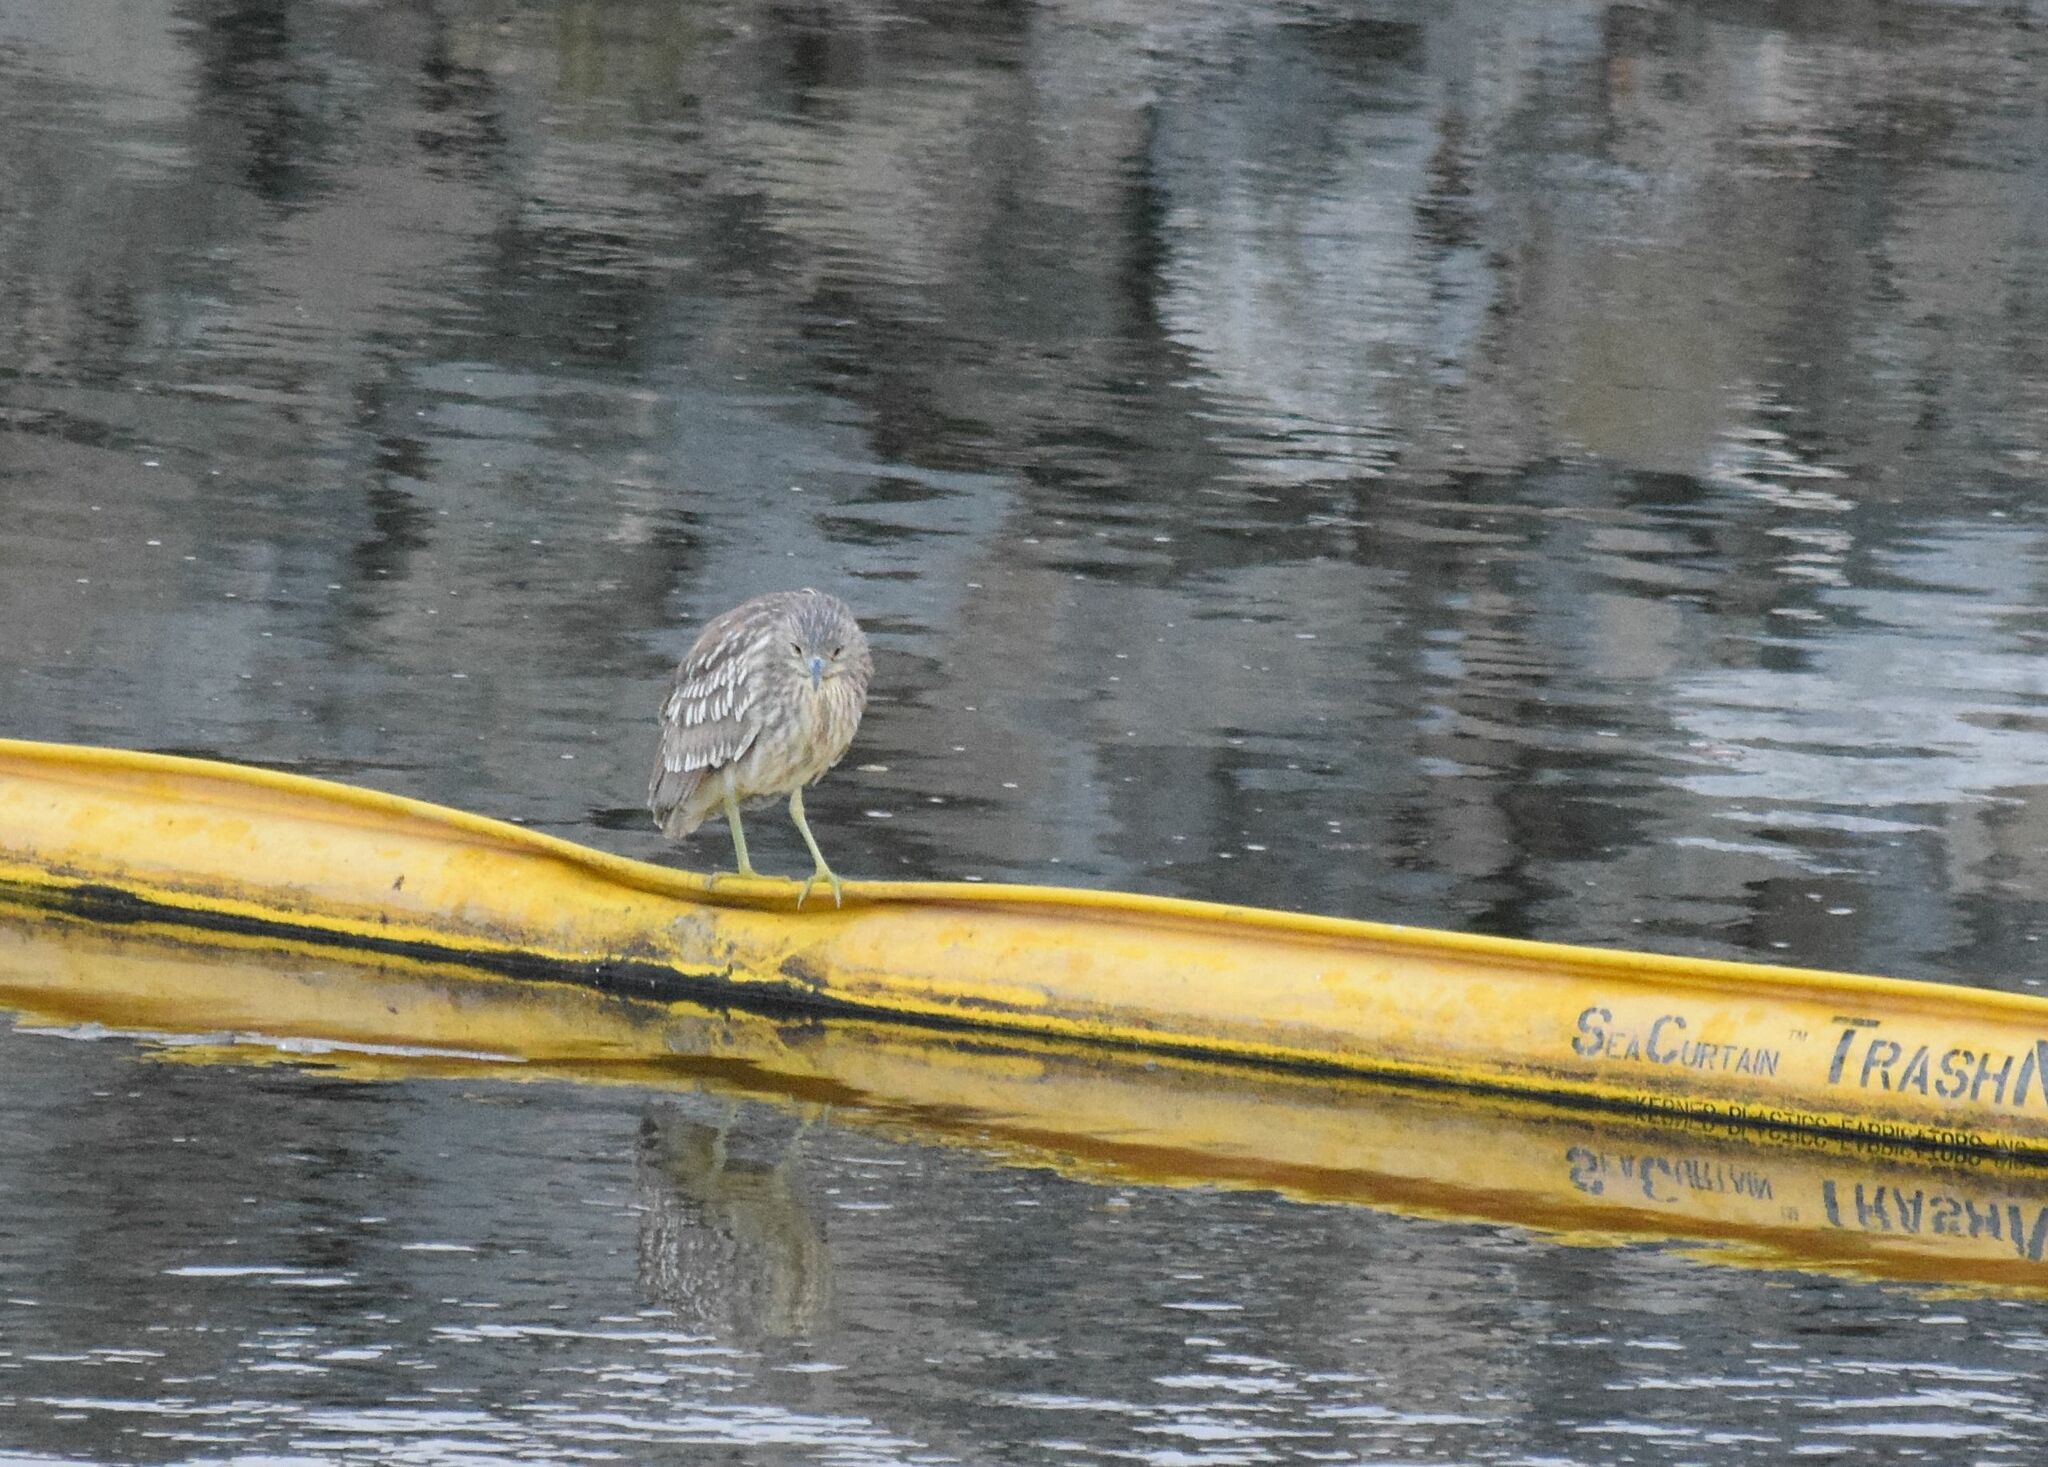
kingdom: Animalia
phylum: Chordata
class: Aves
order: Pelecaniformes
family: Ardeidae
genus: Nycticorax
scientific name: Nycticorax nycticorax
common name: Black-crowned night heron
